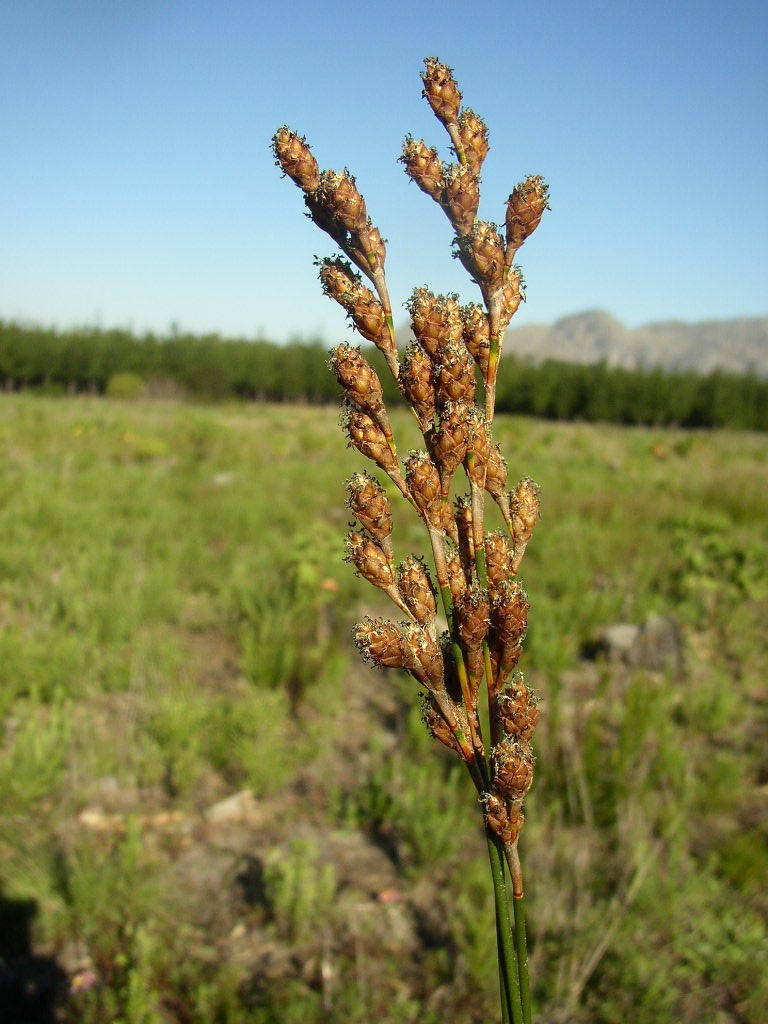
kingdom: Plantae
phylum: Tracheophyta
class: Liliopsida
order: Poales
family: Restionaceae
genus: Restio
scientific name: Restio bifurcus
